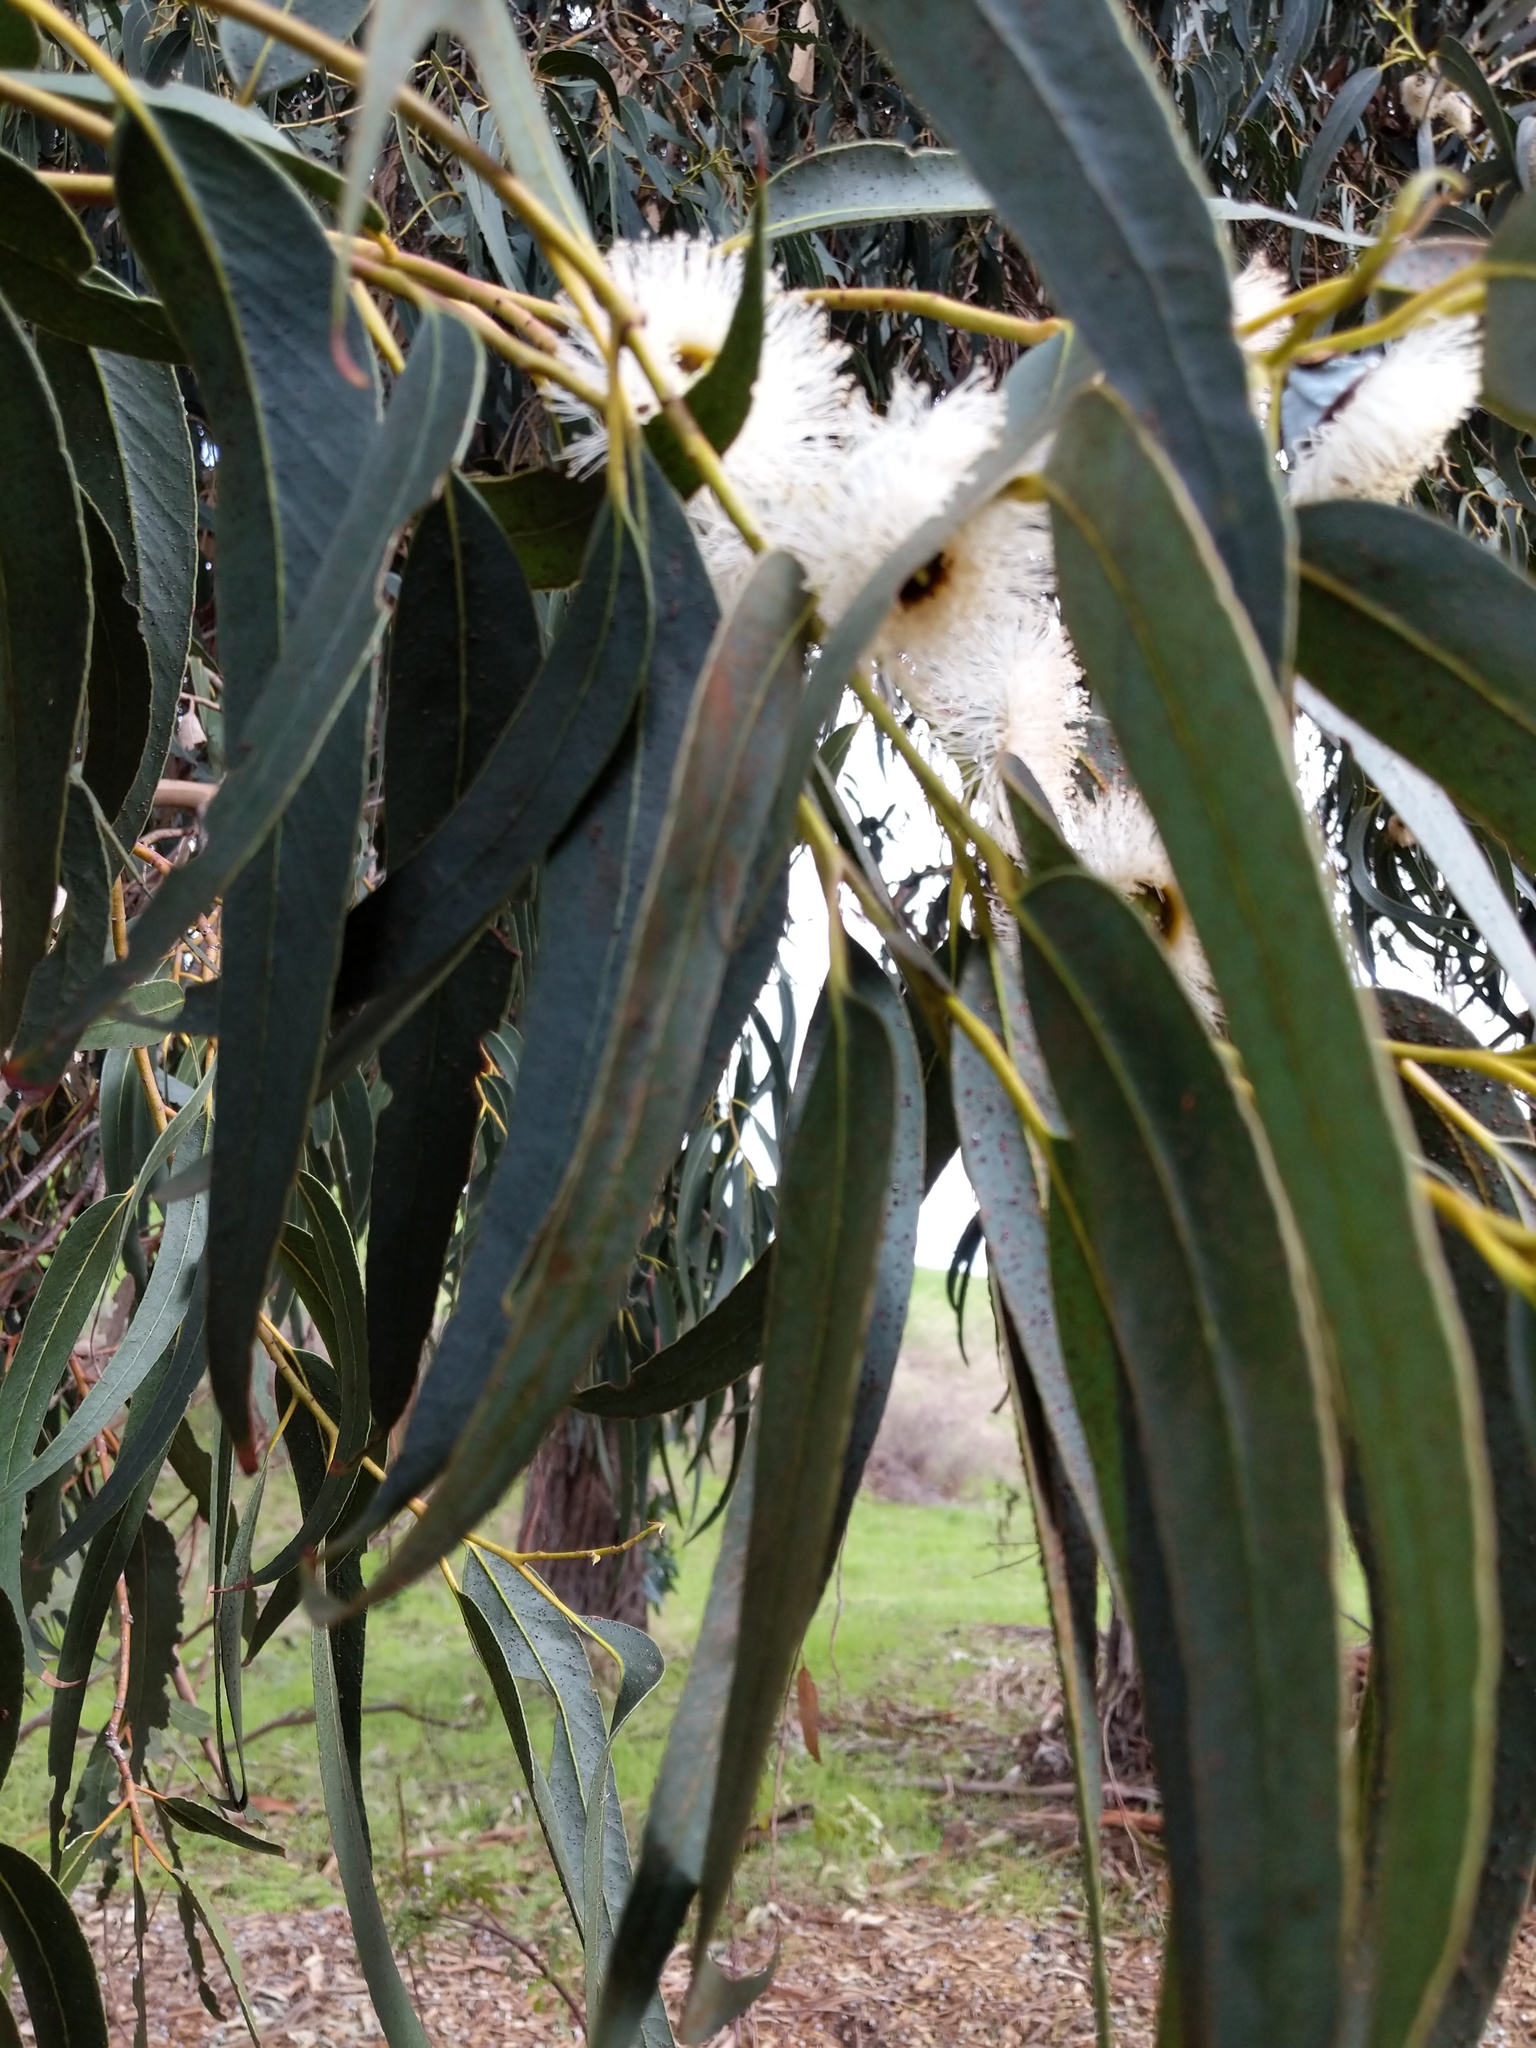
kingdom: Plantae
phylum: Tracheophyta
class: Magnoliopsida
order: Myrtales
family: Myrtaceae
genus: Eucalyptus
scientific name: Eucalyptus globulus
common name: Southern blue-gum
